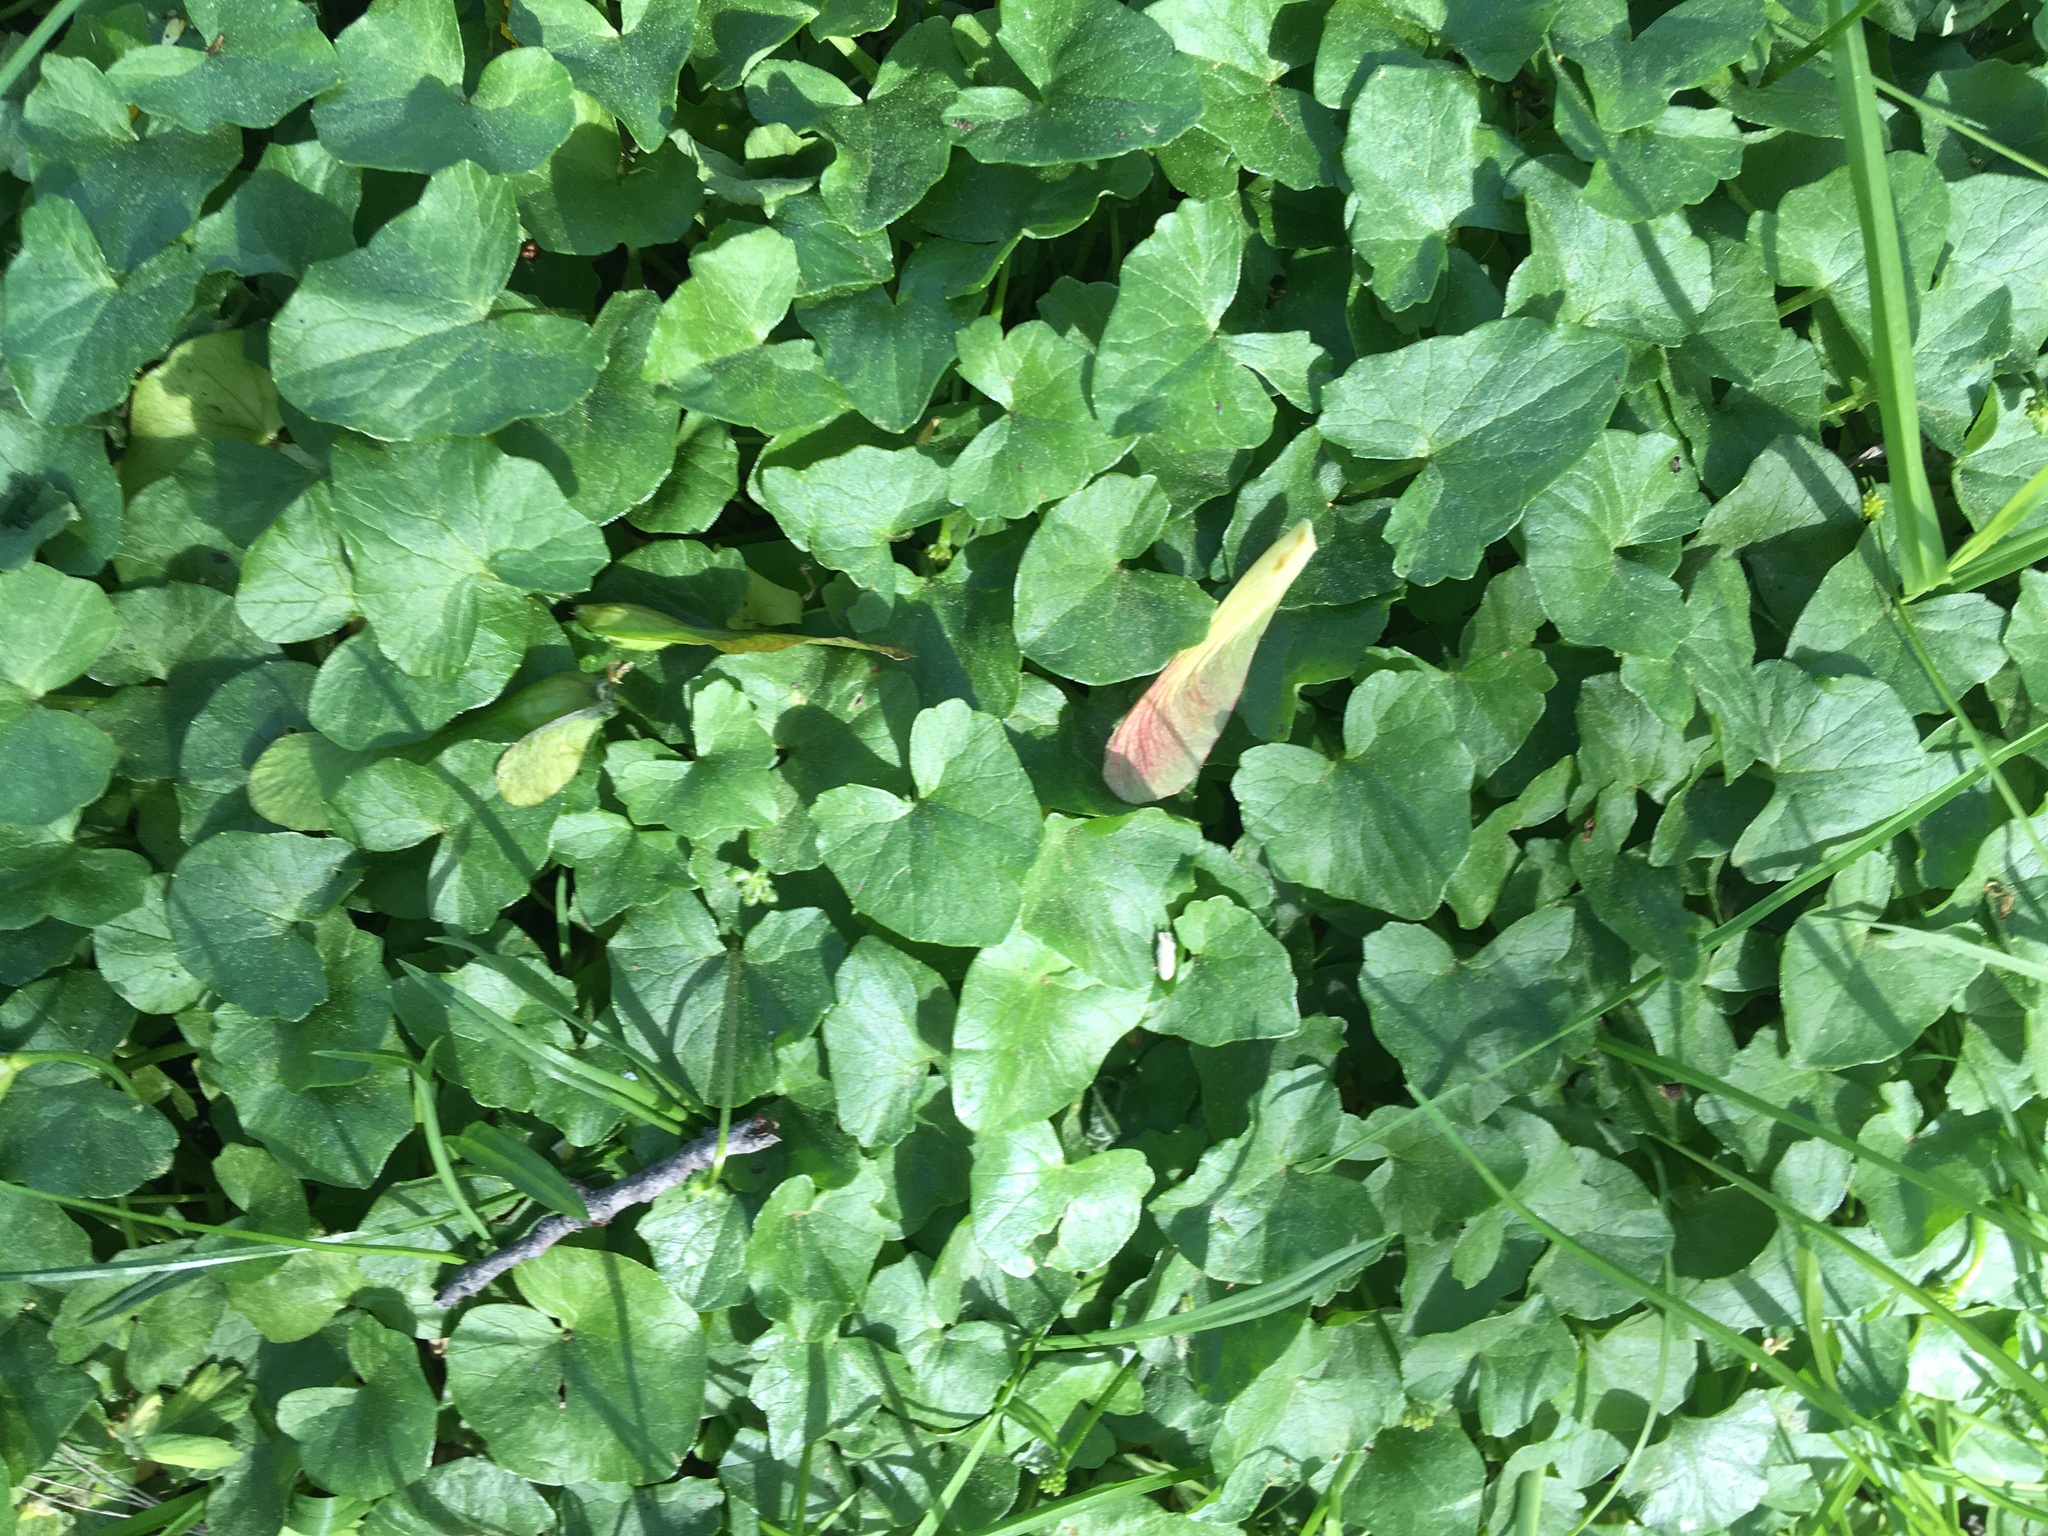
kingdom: Plantae
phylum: Tracheophyta
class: Magnoliopsida
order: Ranunculales
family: Ranunculaceae
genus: Ficaria
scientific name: Ficaria verna
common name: Lesser celandine
